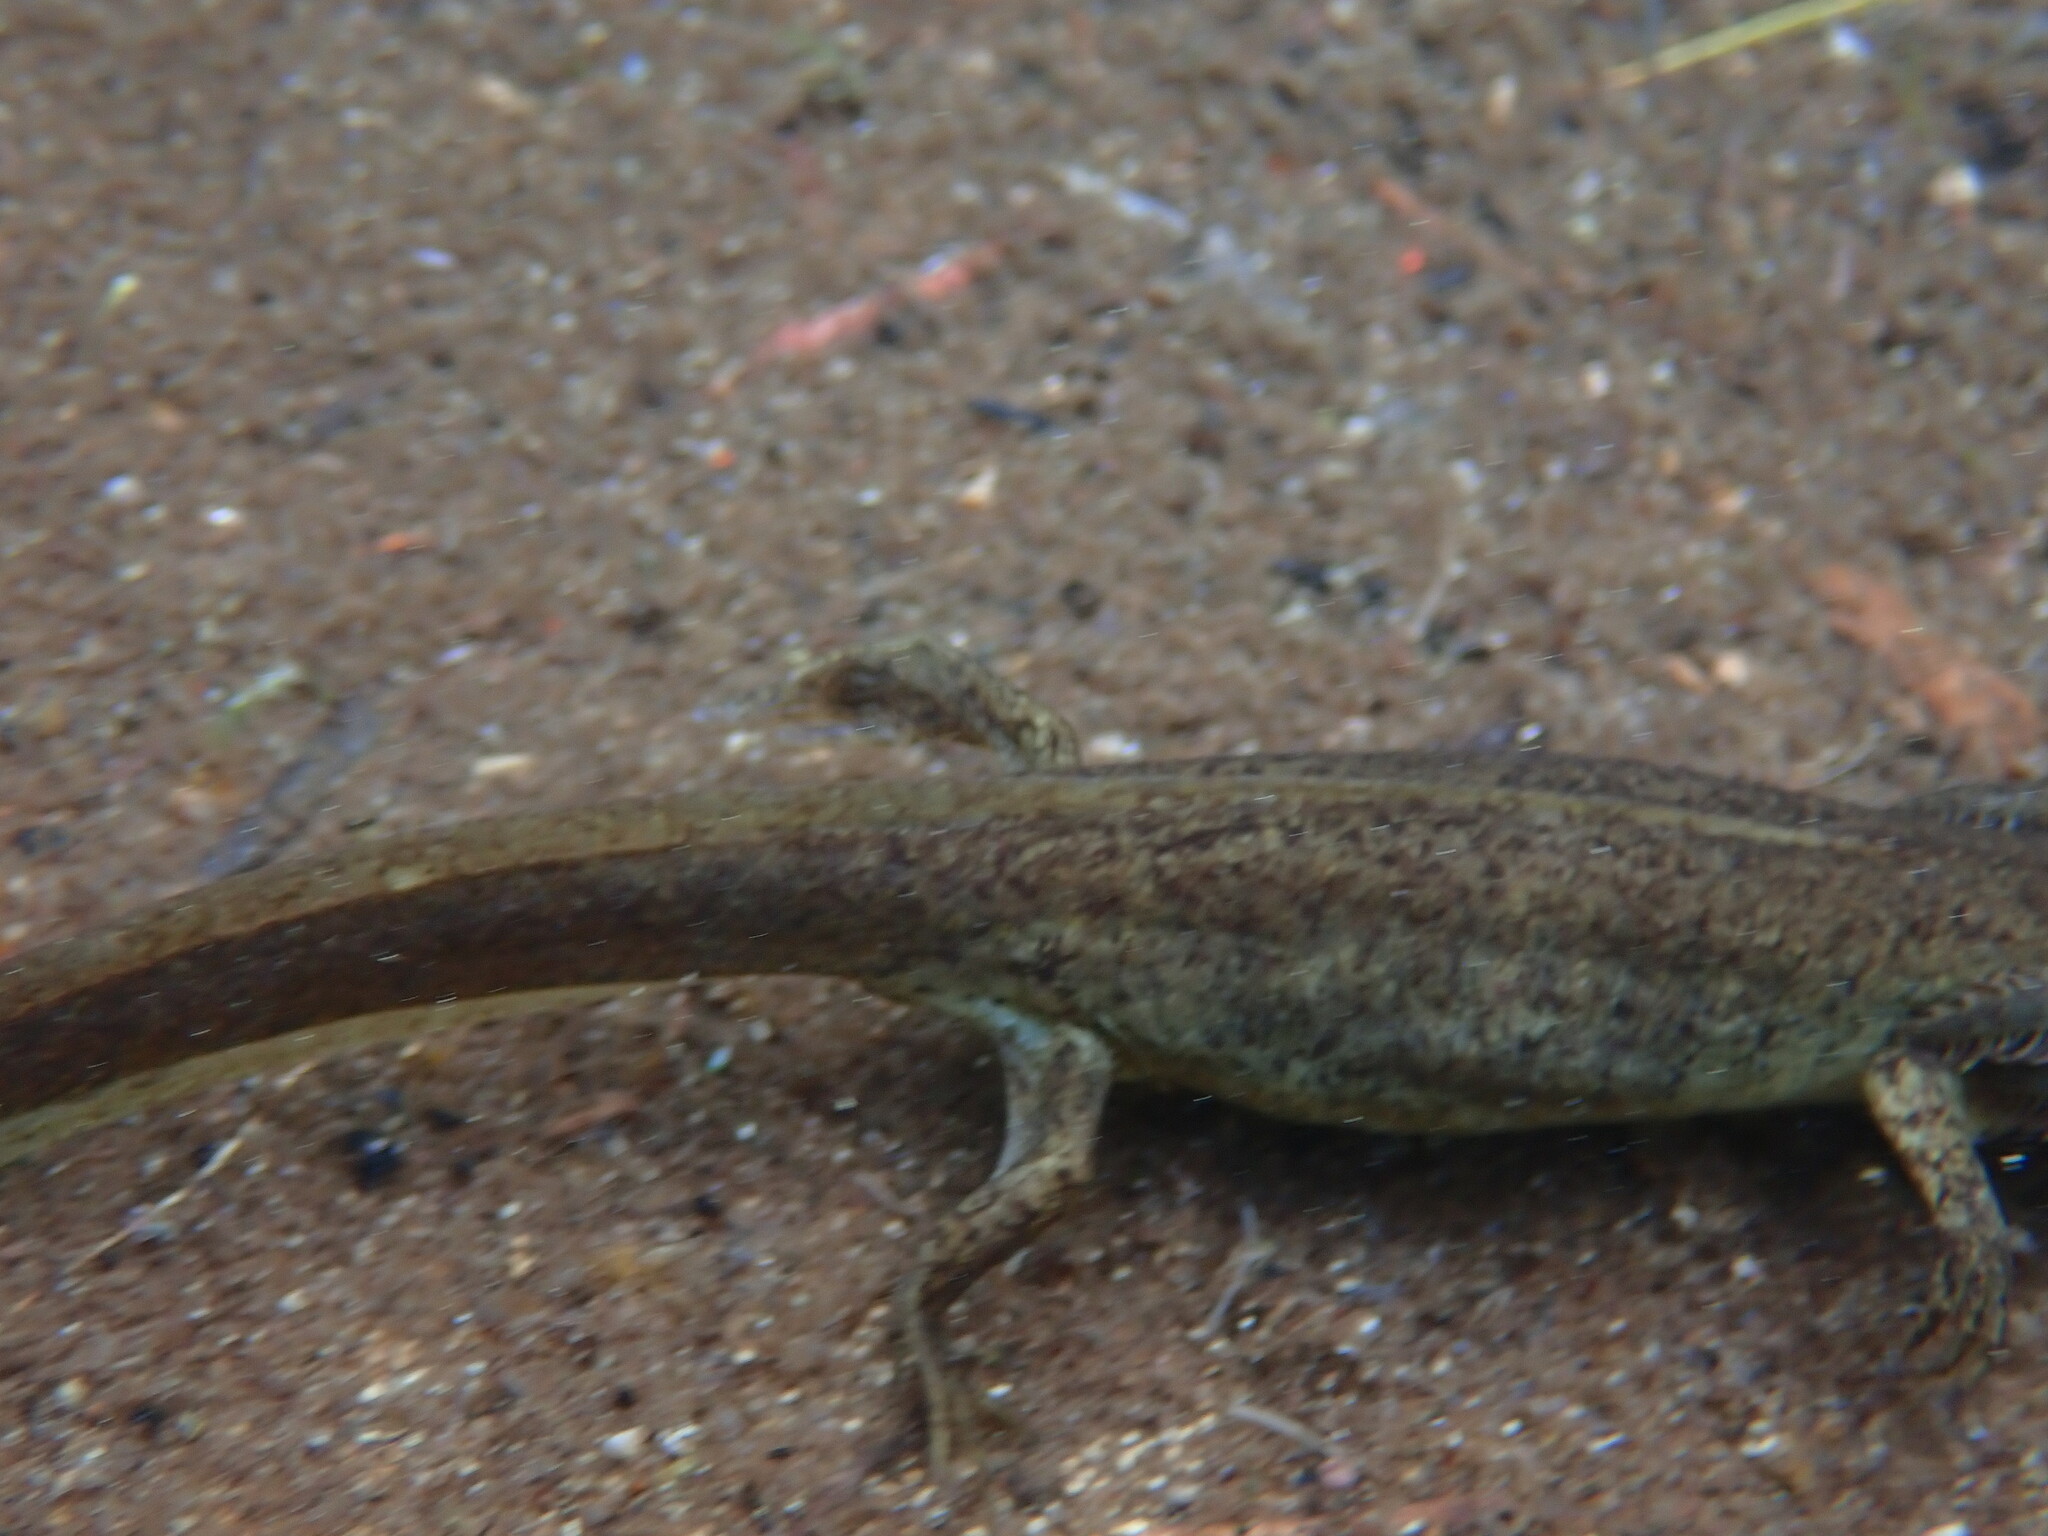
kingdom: Animalia
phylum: Chordata
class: Amphibia
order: Caudata
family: Ambystomatidae
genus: Ambystoma
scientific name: Ambystoma gracile
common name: Northwestern salamander
